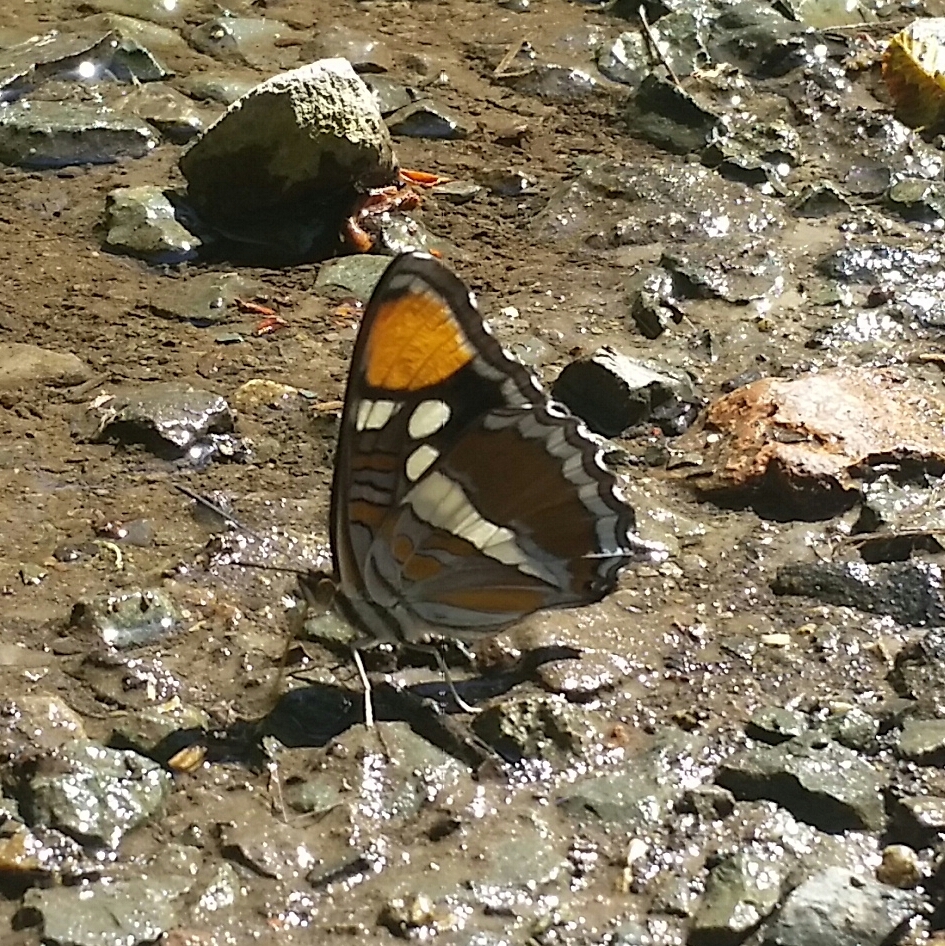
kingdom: Animalia
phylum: Arthropoda
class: Insecta
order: Lepidoptera
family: Nymphalidae
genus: Limenitis
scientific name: Limenitis bredowii
